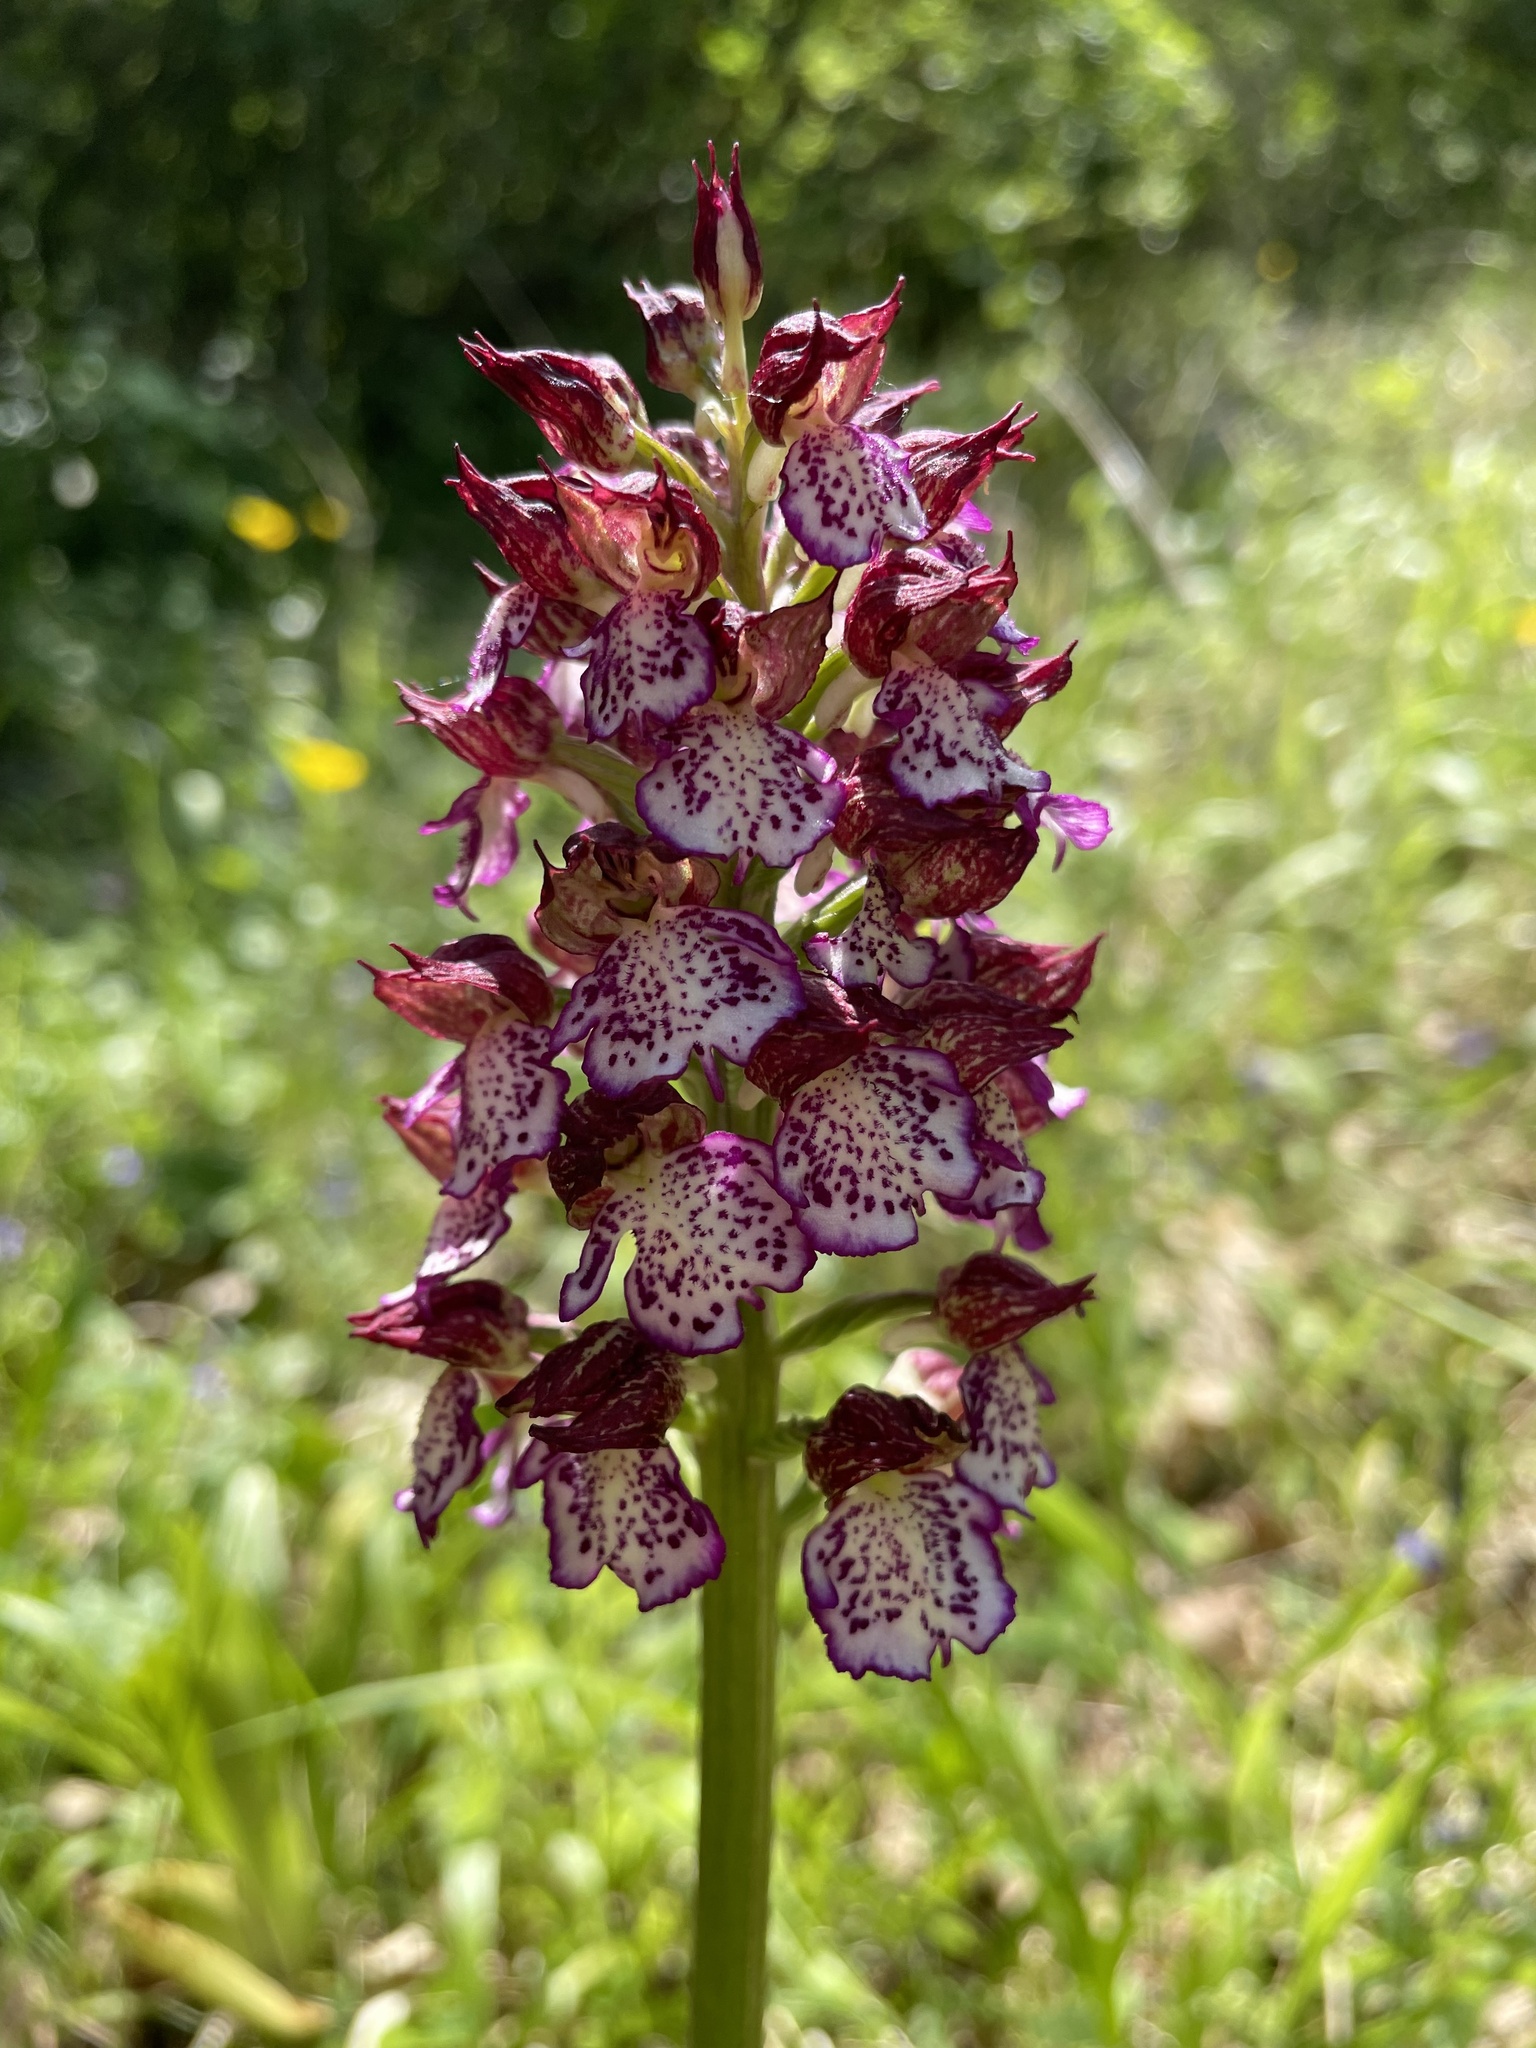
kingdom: Plantae
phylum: Tracheophyta
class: Liliopsida
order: Asparagales
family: Orchidaceae
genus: Orchis
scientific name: Orchis purpurea
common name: Lady orchid
